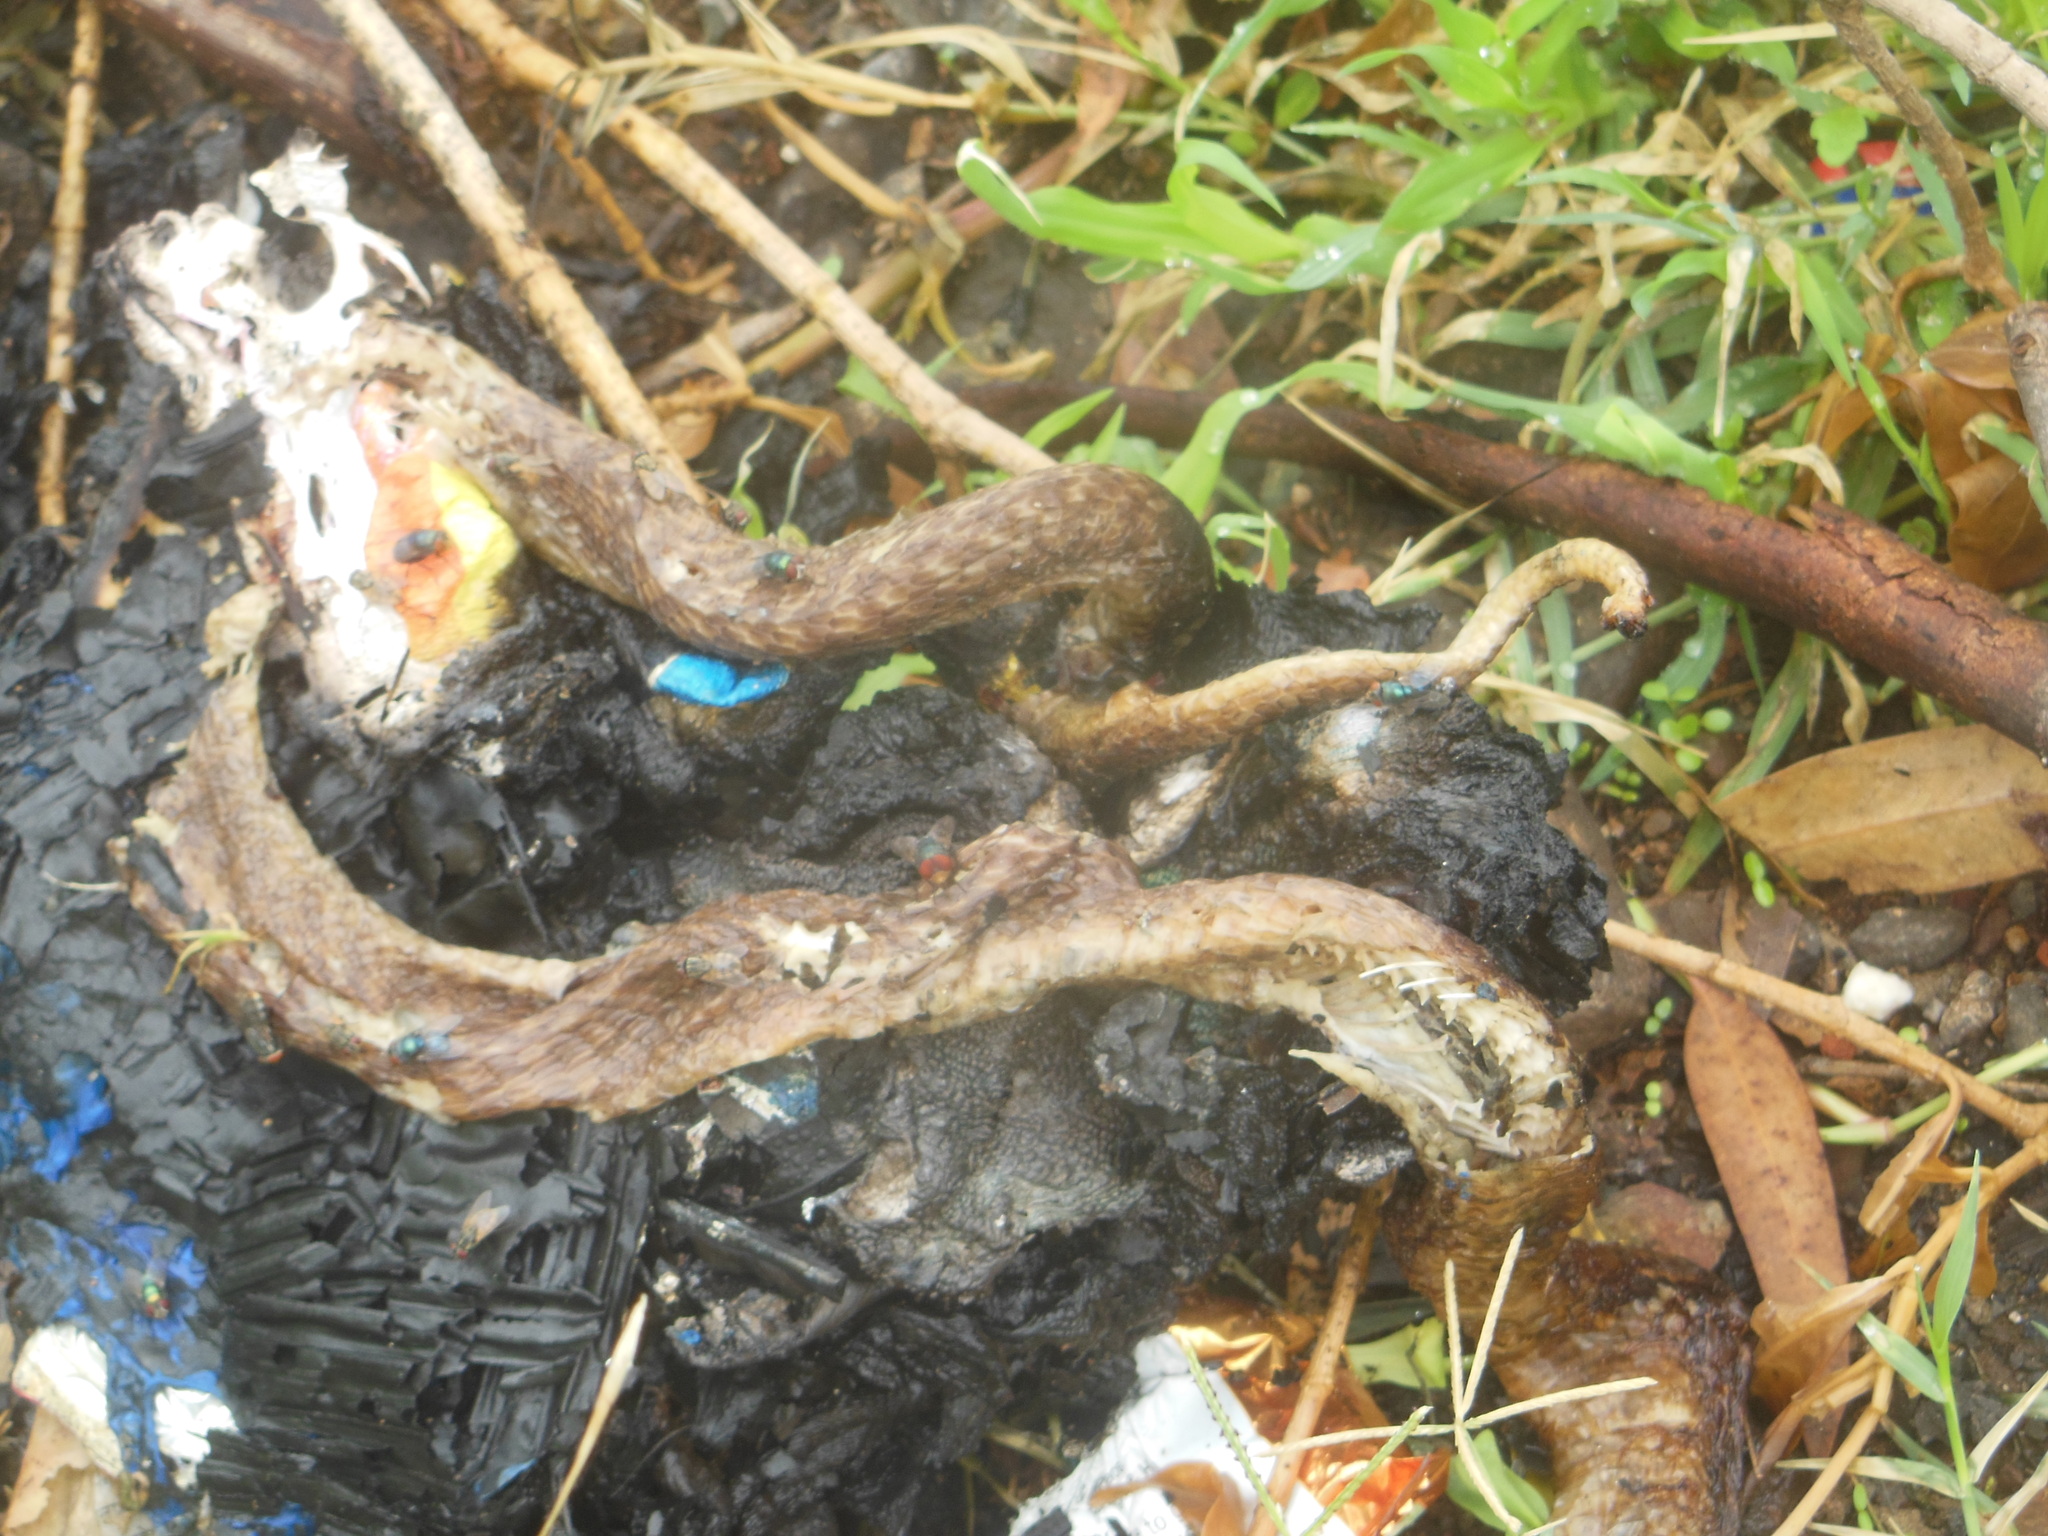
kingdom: Animalia
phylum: Chordata
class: Squamata
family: Elapidae
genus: Naja
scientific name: Naja naja
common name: Indian cobra
